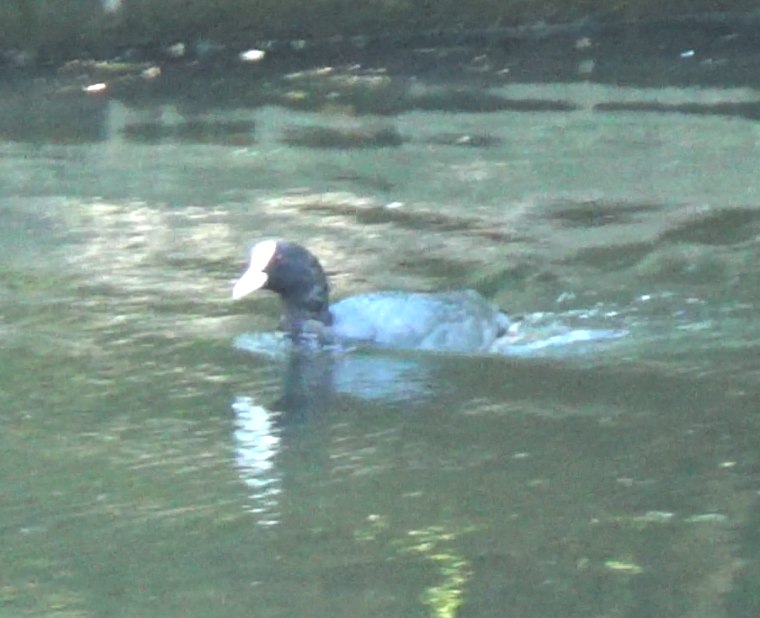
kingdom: Animalia
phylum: Chordata
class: Aves
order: Gruiformes
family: Rallidae
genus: Fulica
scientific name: Fulica atra
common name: Eurasian coot
